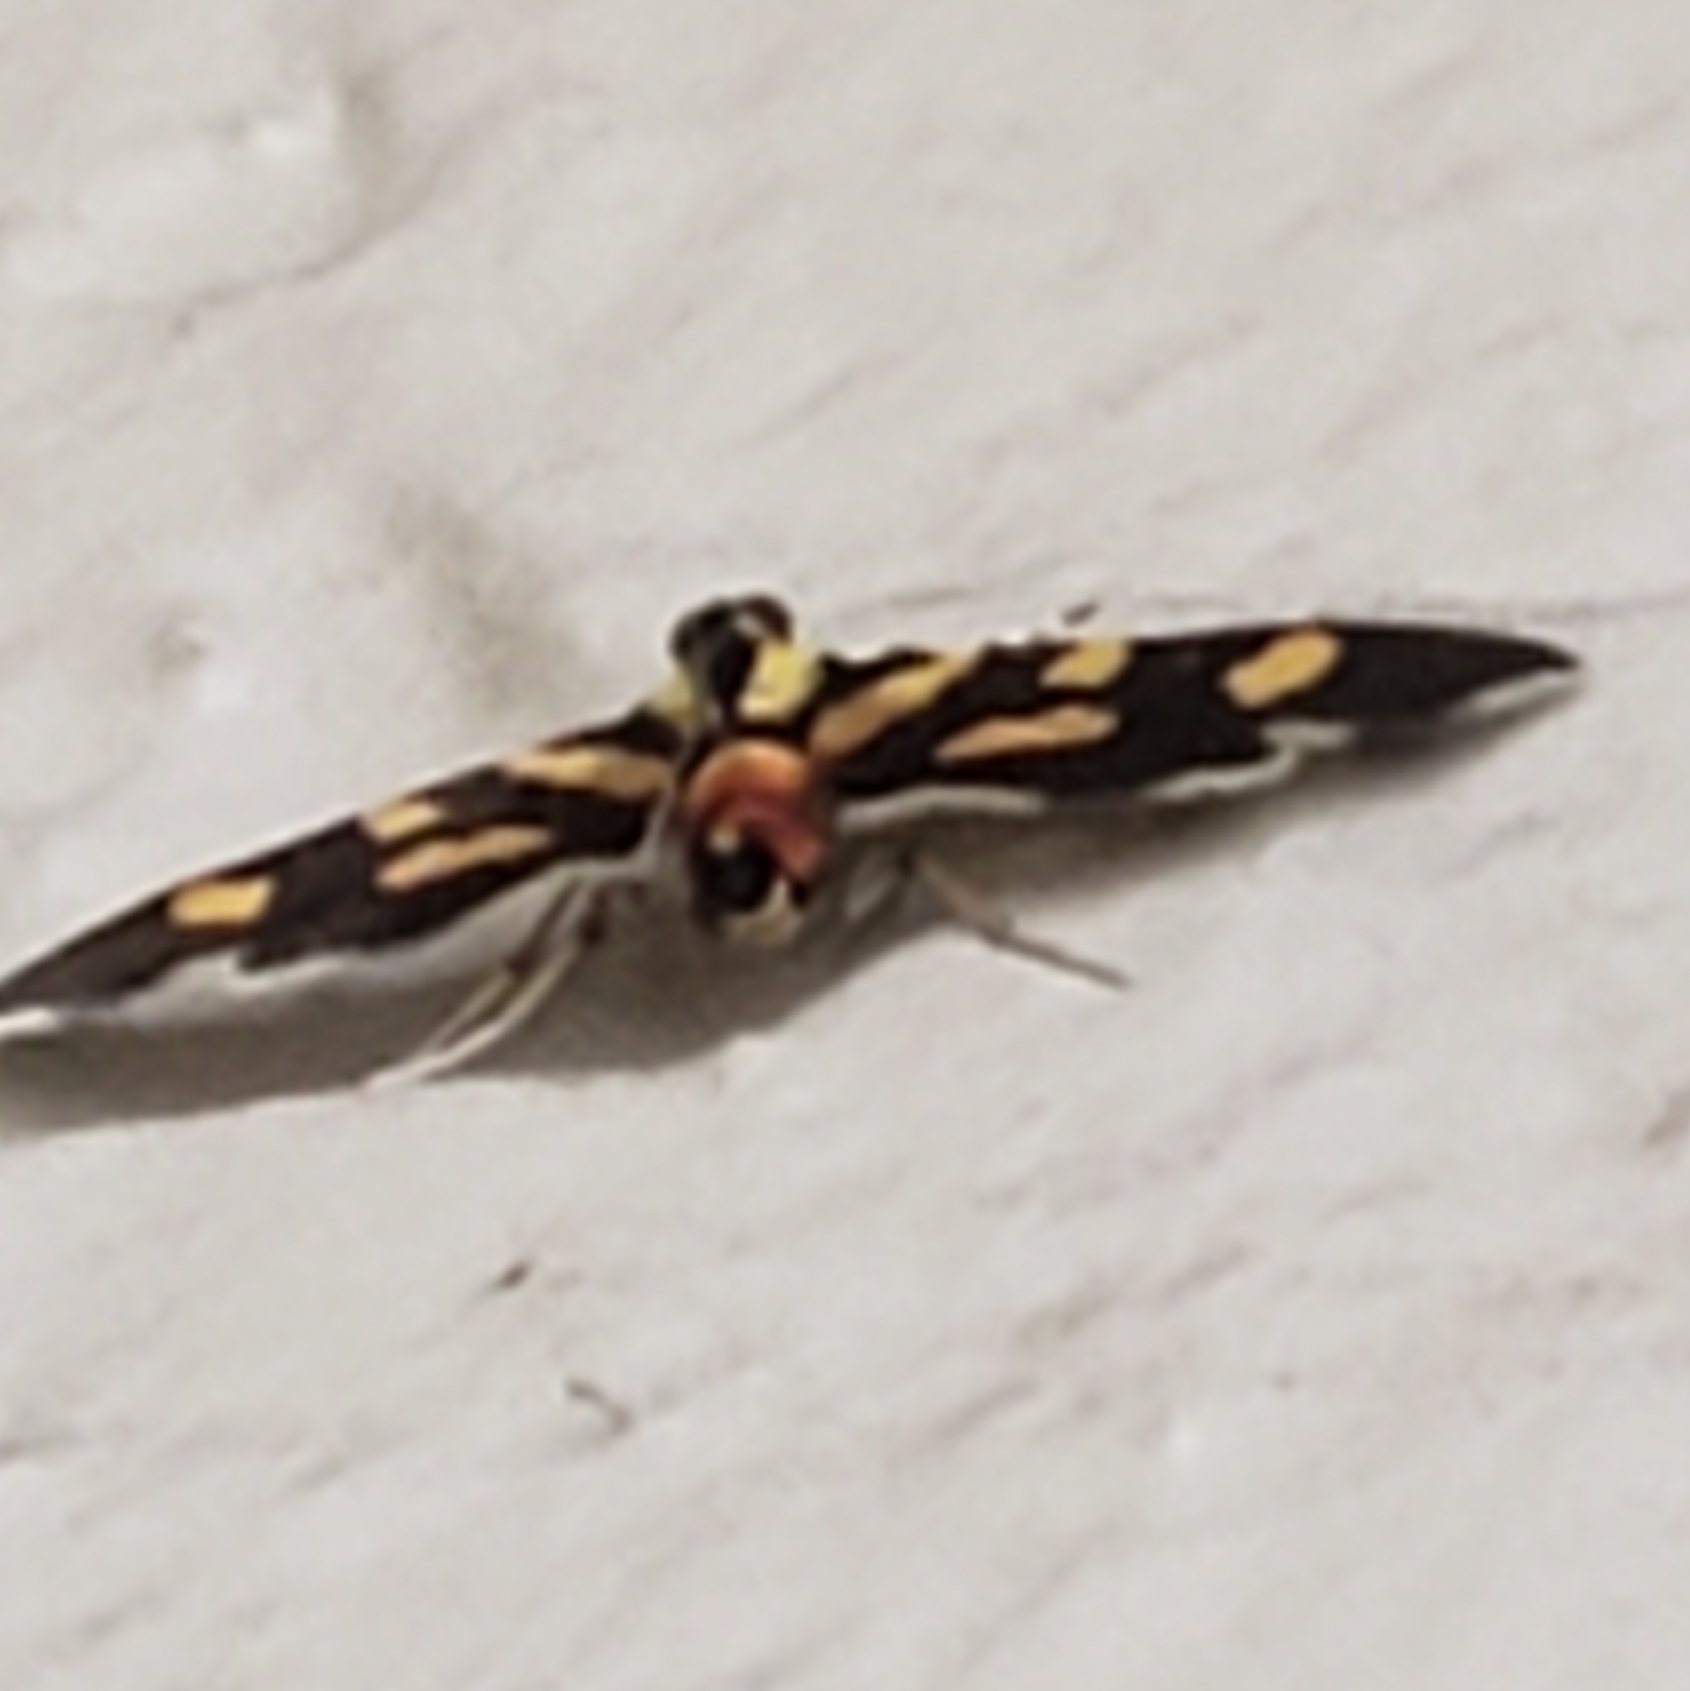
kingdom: Animalia
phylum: Arthropoda
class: Insecta
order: Lepidoptera
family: Crambidae
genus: Syngamia
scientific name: Syngamia florella
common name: Orange-spotted flower moth
